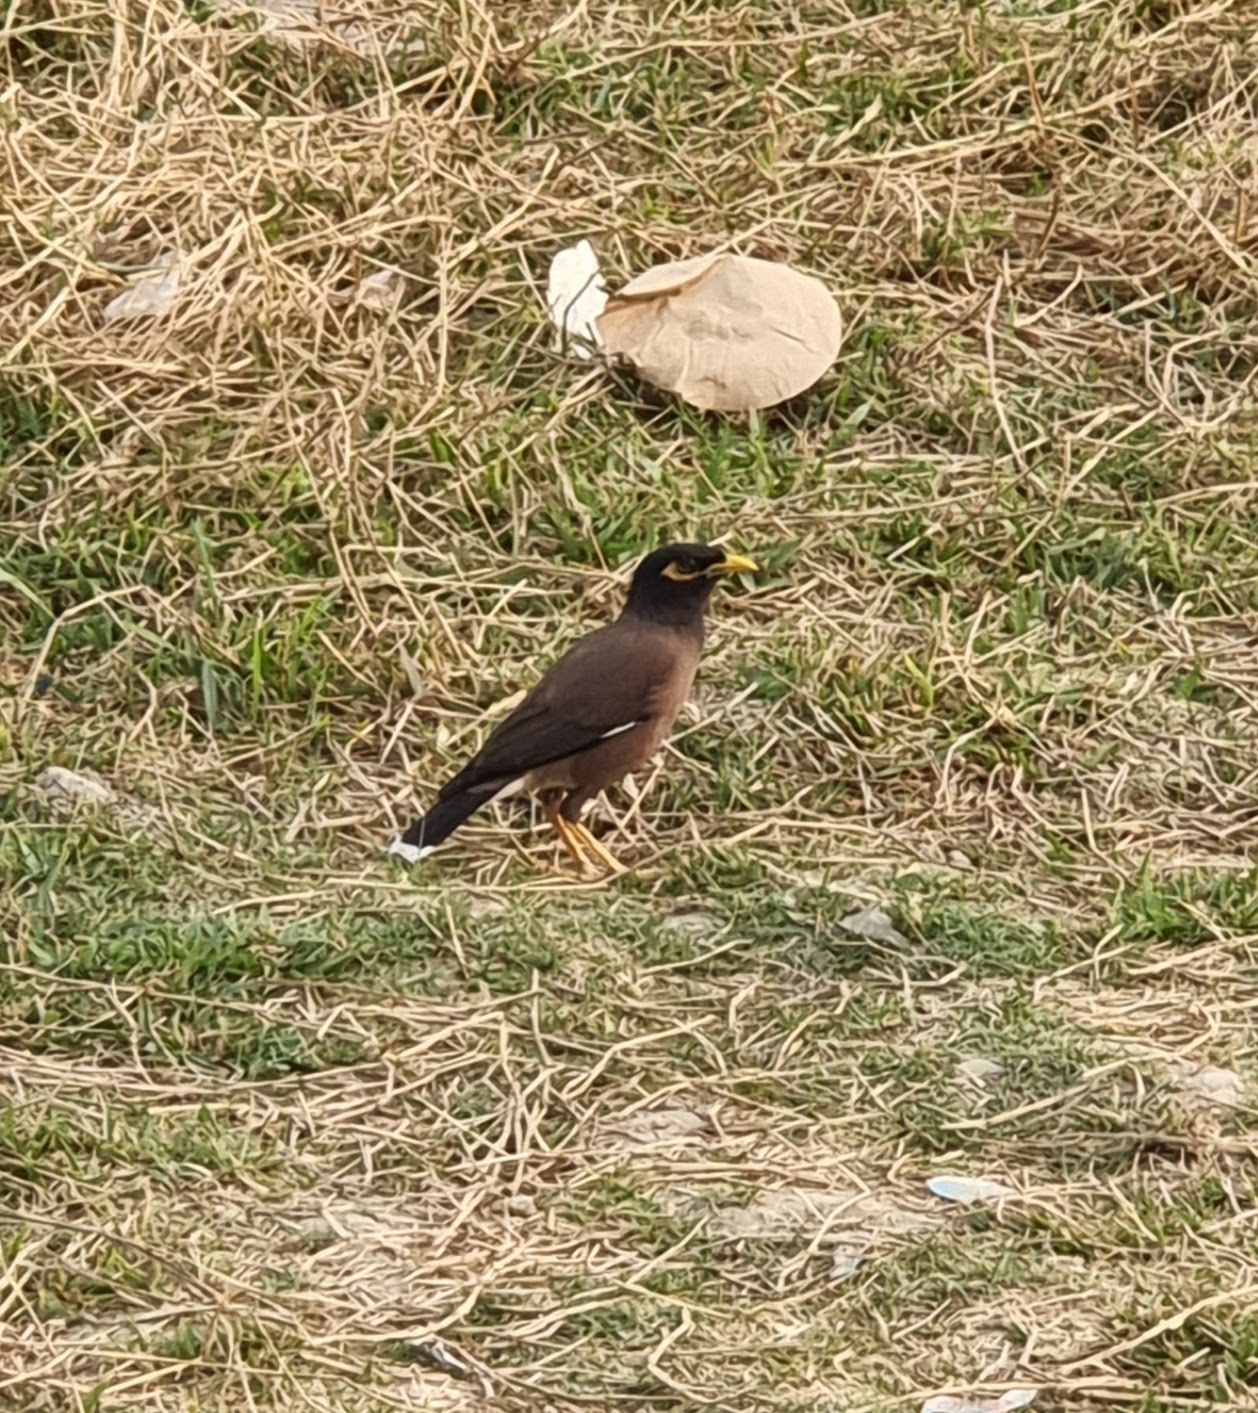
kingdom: Animalia
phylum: Chordata
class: Aves
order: Passeriformes
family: Sturnidae
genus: Acridotheres
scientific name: Acridotheres tristis
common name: Common myna
